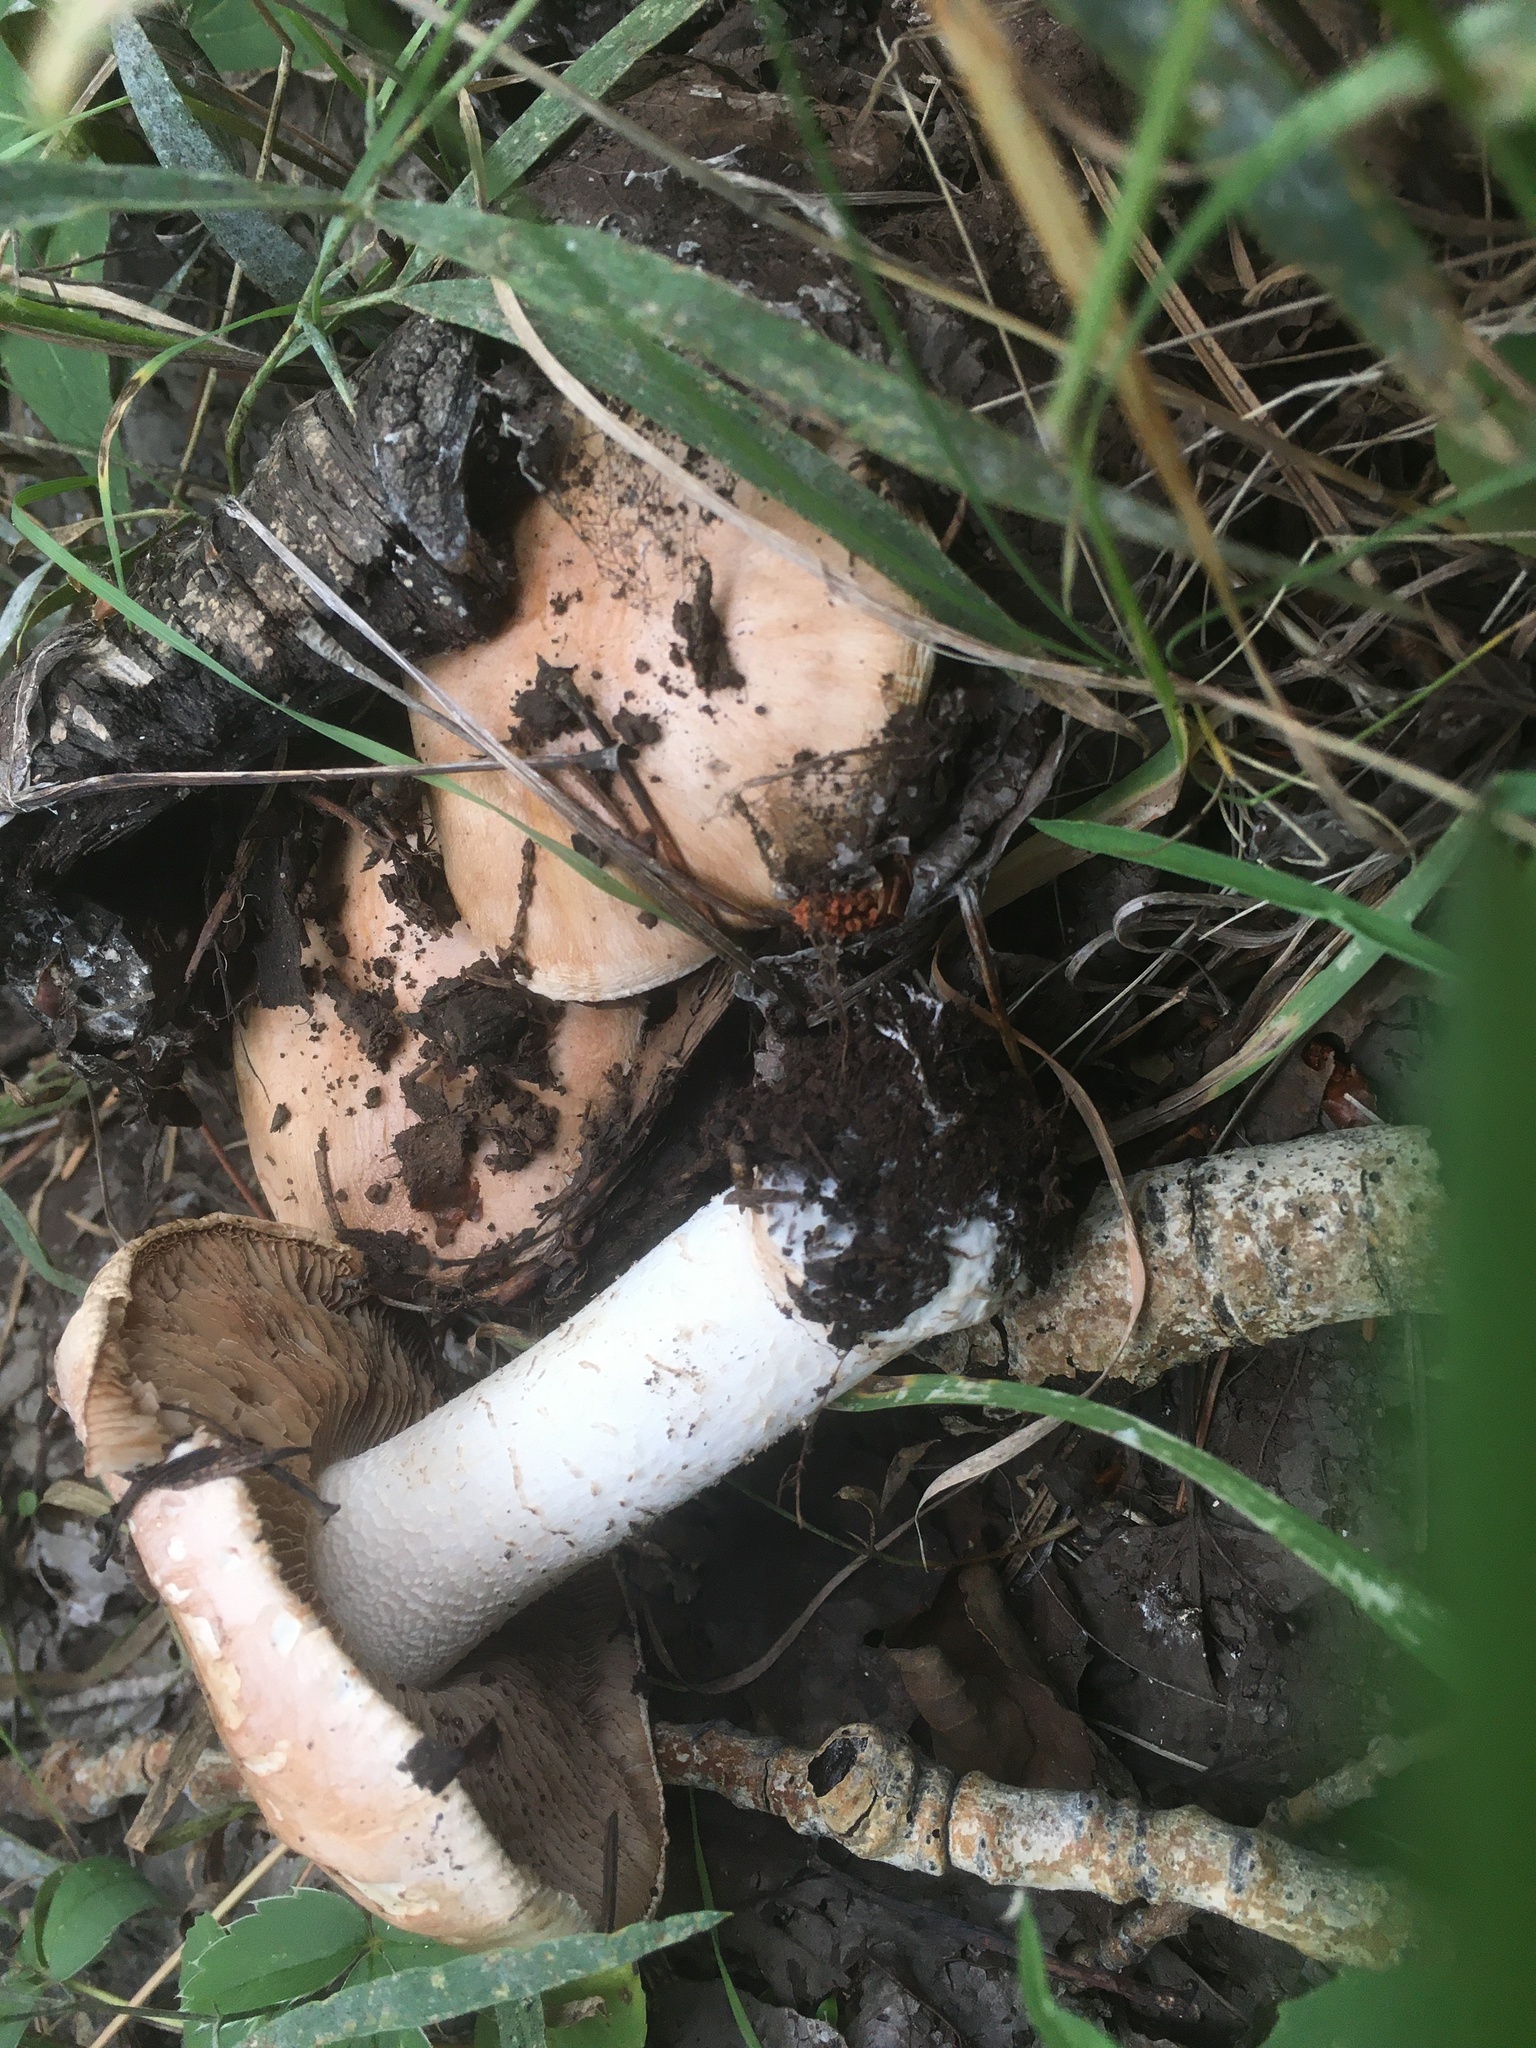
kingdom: Fungi
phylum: Basidiomycota
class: Agaricomycetes
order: Agaricales
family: Hymenogastraceae
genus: Hebeloma
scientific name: Hebeloma albomarginatum
